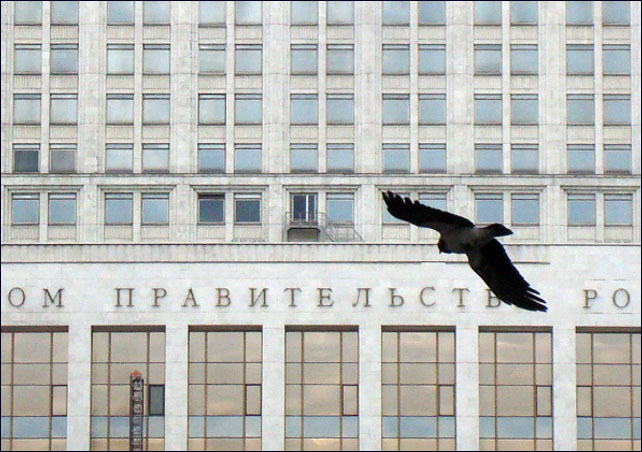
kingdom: Animalia
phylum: Chordata
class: Aves
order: Passeriformes
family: Corvidae
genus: Corvus
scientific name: Corvus cornix
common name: Hooded crow
